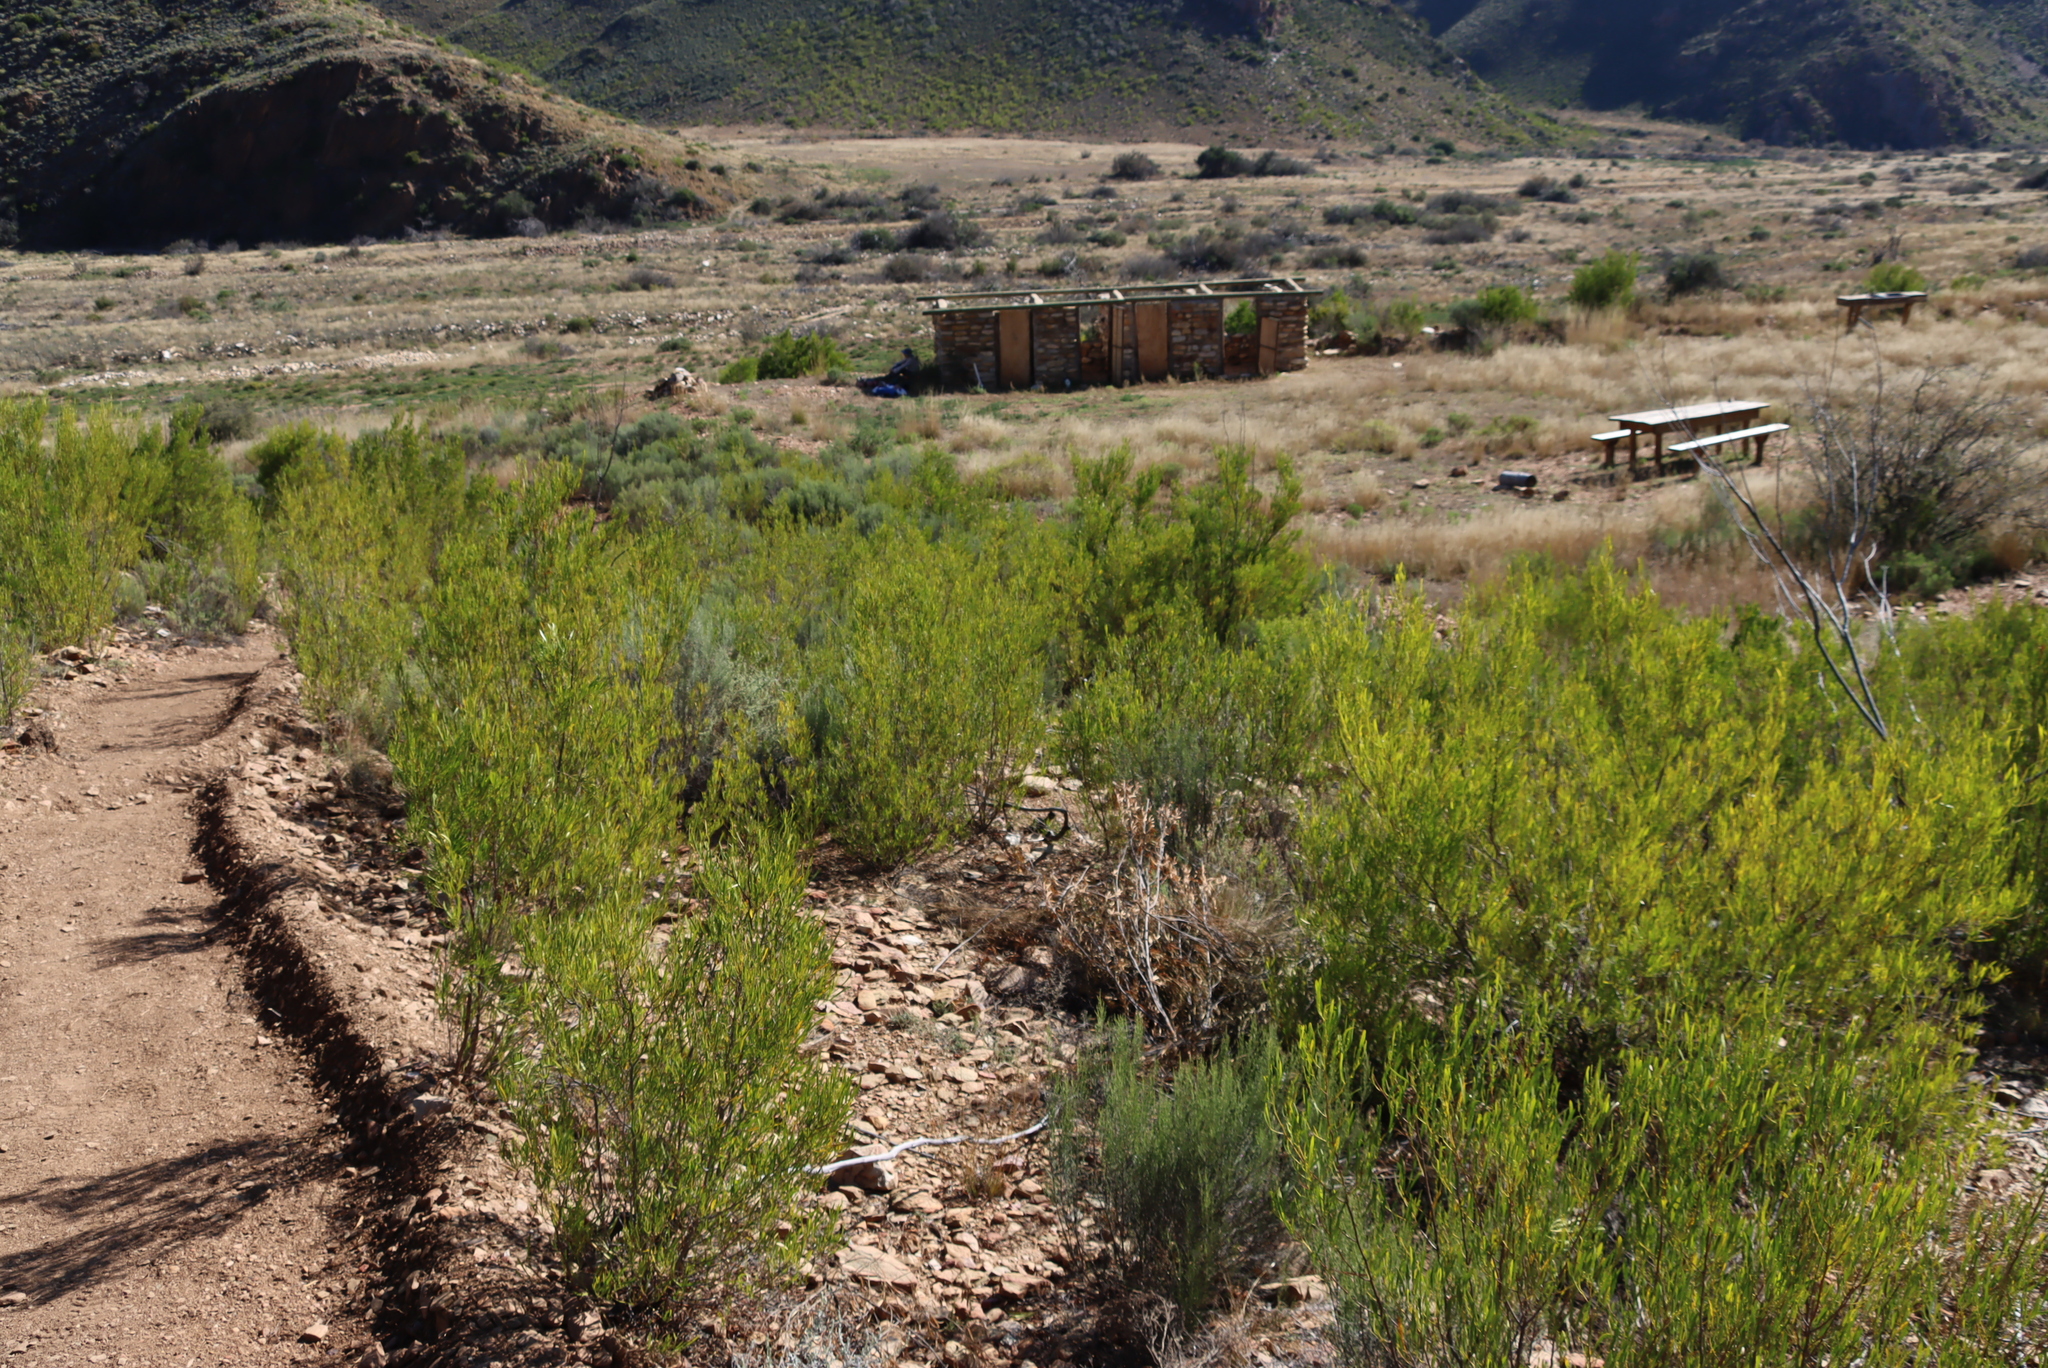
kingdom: Plantae
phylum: Tracheophyta
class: Magnoliopsida
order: Sapindales
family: Sapindaceae
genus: Dodonaea
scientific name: Dodonaea viscosa
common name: Hopbush
